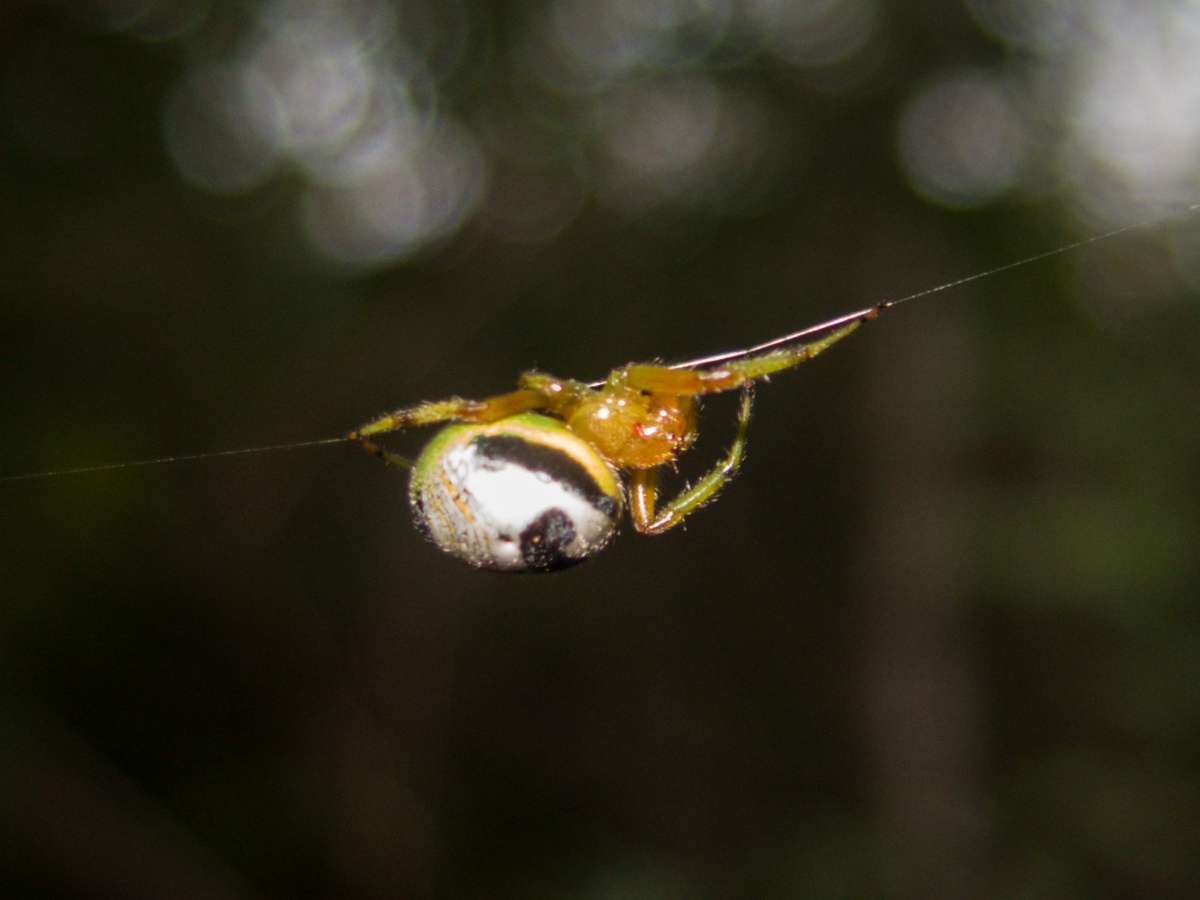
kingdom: Animalia
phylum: Arthropoda
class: Arachnida
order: Araneae
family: Araneidae
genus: Bijoaraneus
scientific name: Bijoaraneus mitificus
